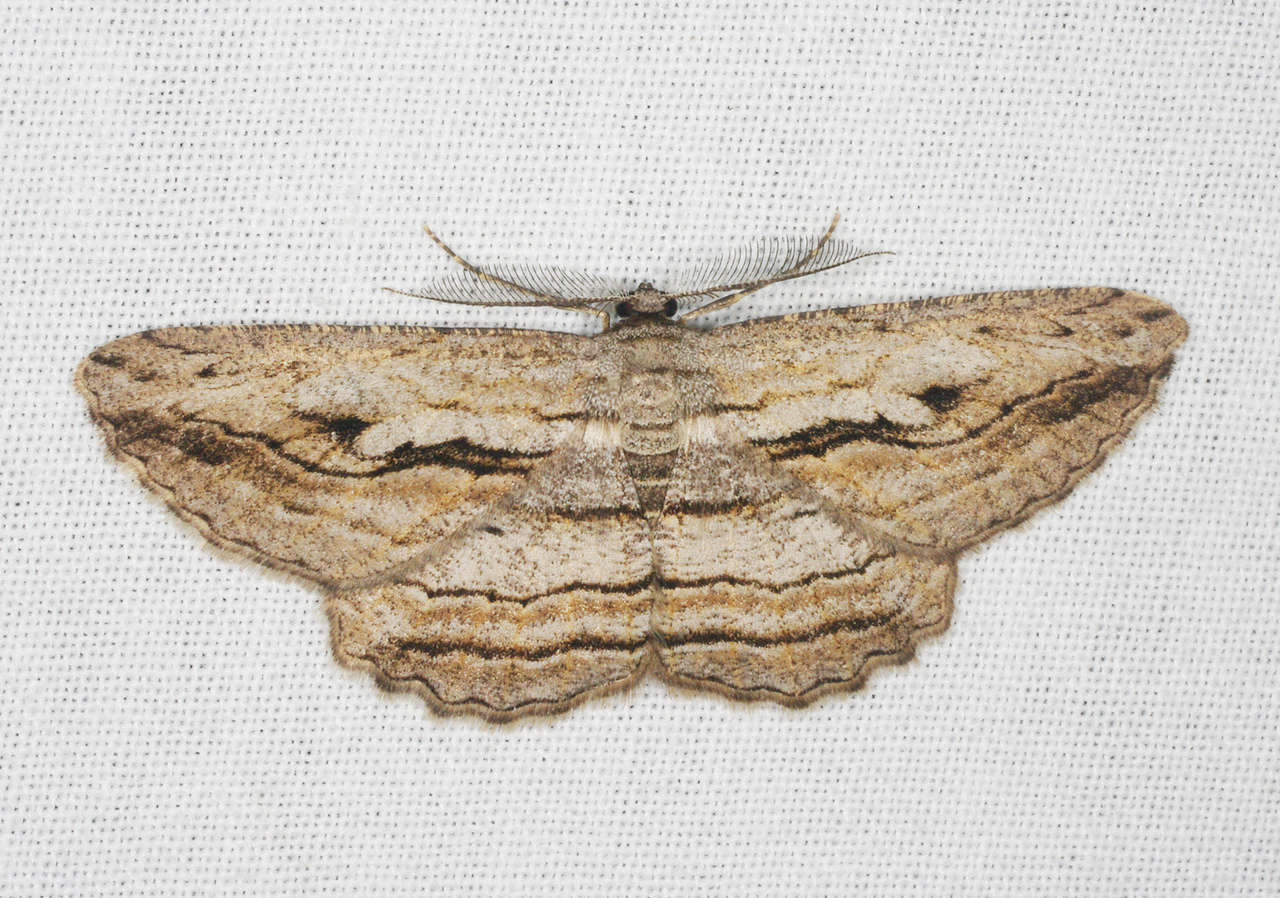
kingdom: Animalia
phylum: Arthropoda
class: Insecta
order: Lepidoptera
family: Geometridae
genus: Scioglyptis
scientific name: Scioglyptis loxographa
